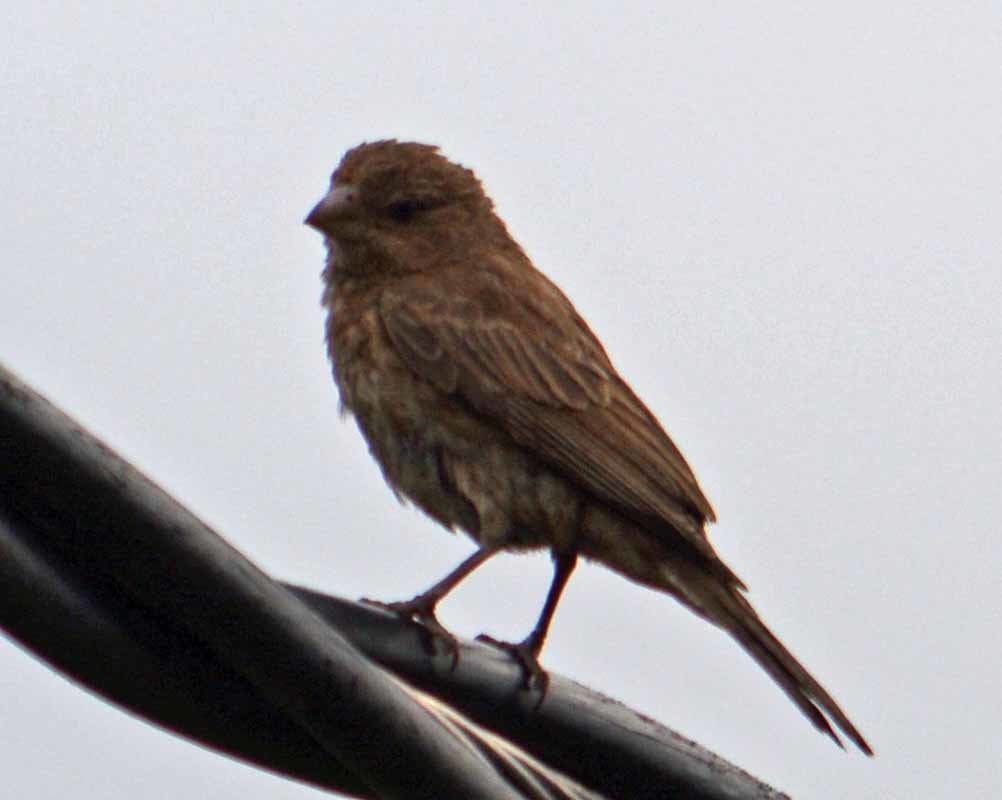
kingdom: Animalia
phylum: Chordata
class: Aves
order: Passeriformes
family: Fringillidae
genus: Haemorhous
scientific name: Haemorhous mexicanus
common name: House finch
